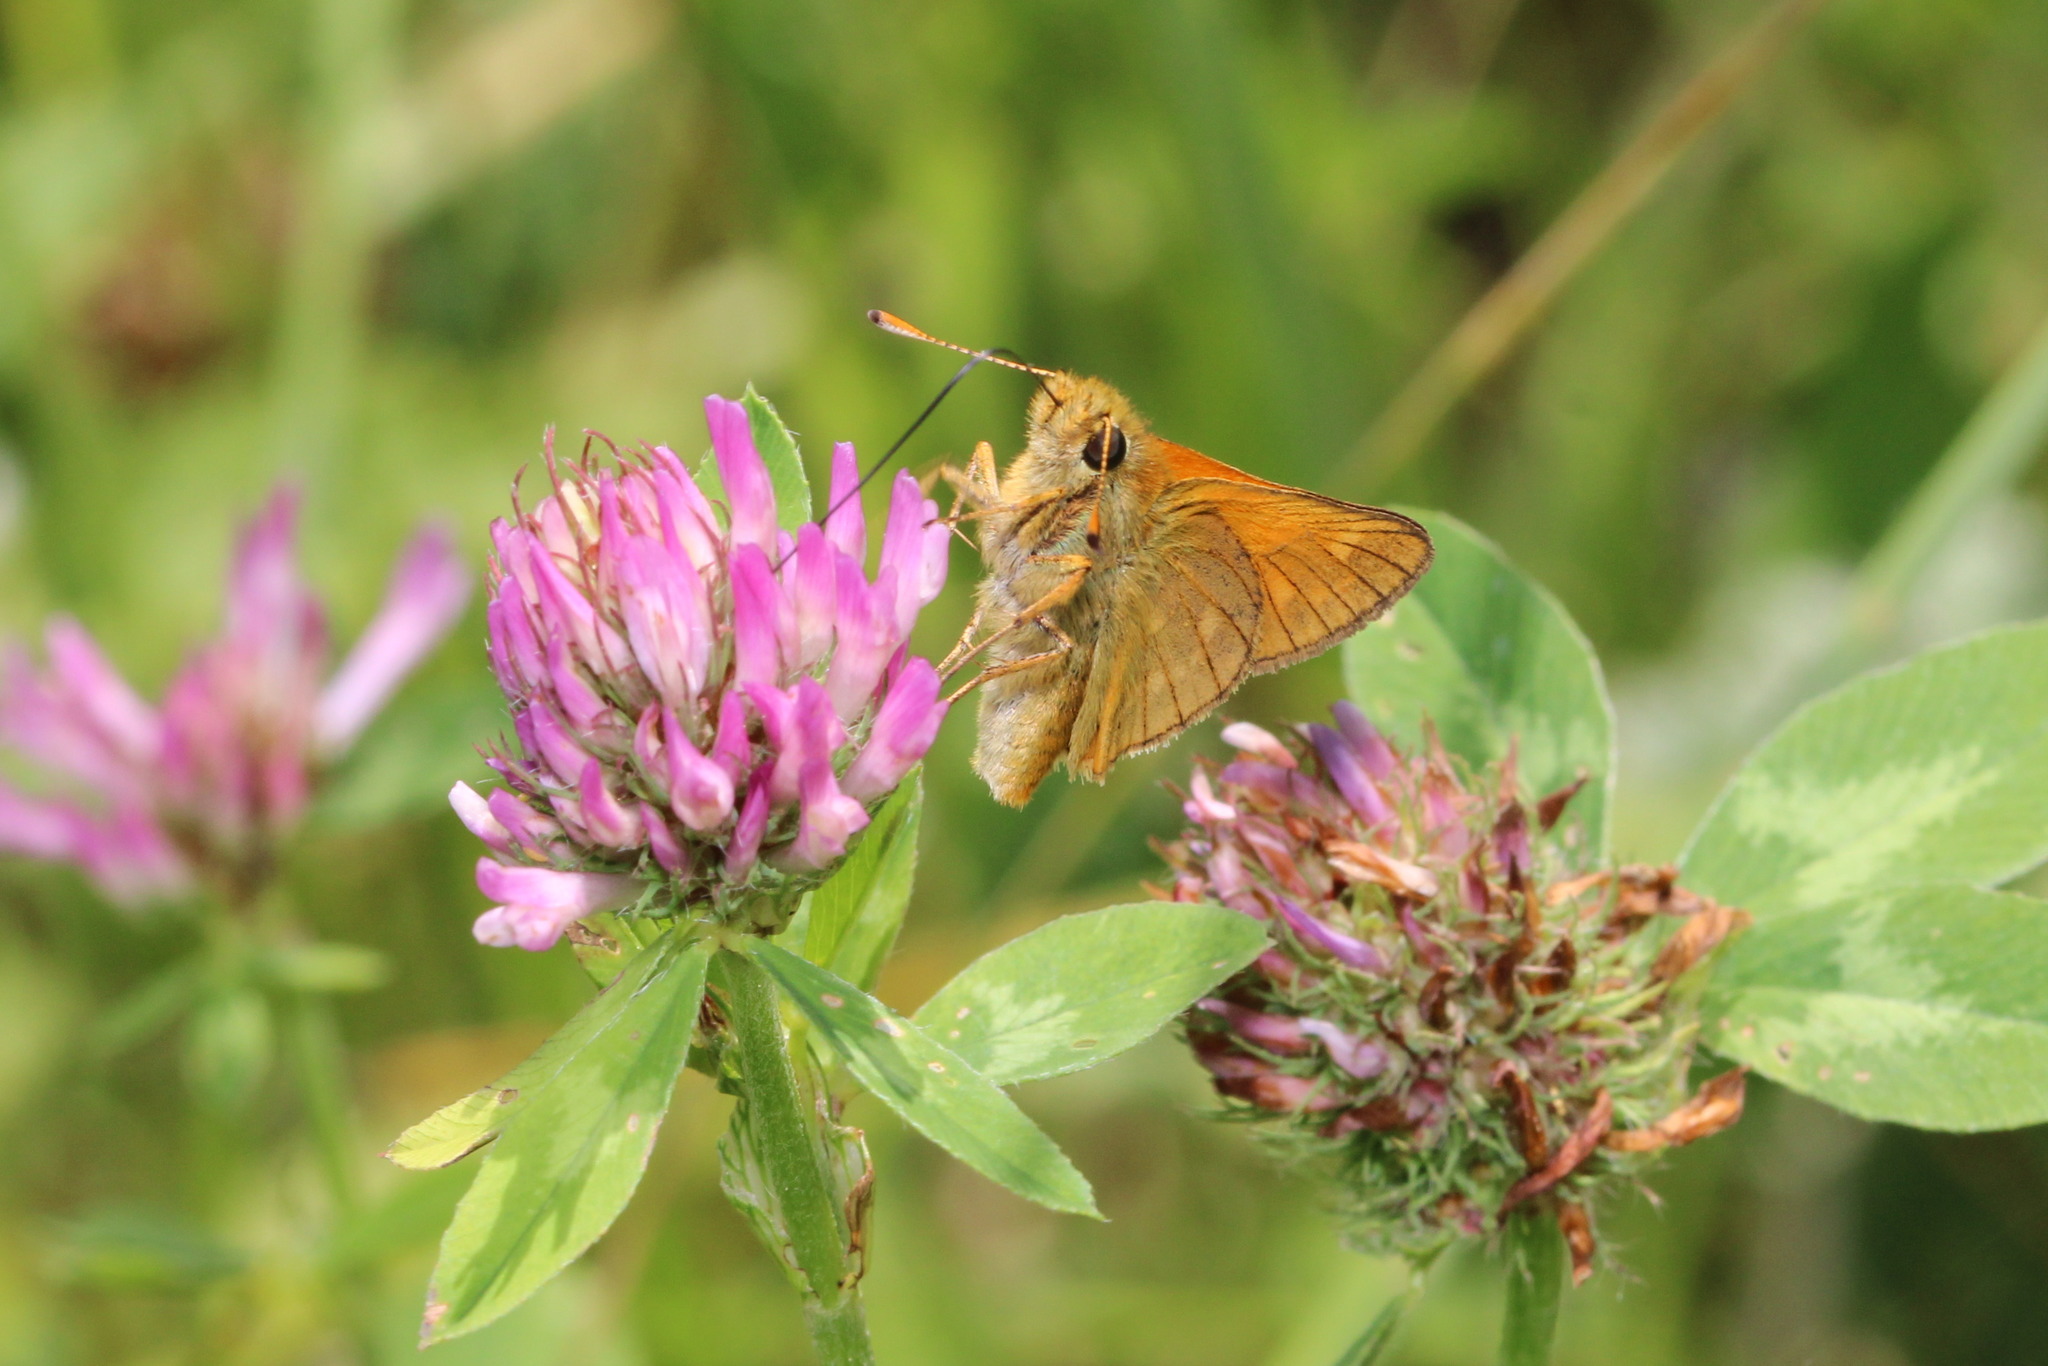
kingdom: Animalia
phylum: Arthropoda
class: Insecta
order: Lepidoptera
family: Hesperiidae
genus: Ochlodes
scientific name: Ochlodes venata
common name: Large skipper
